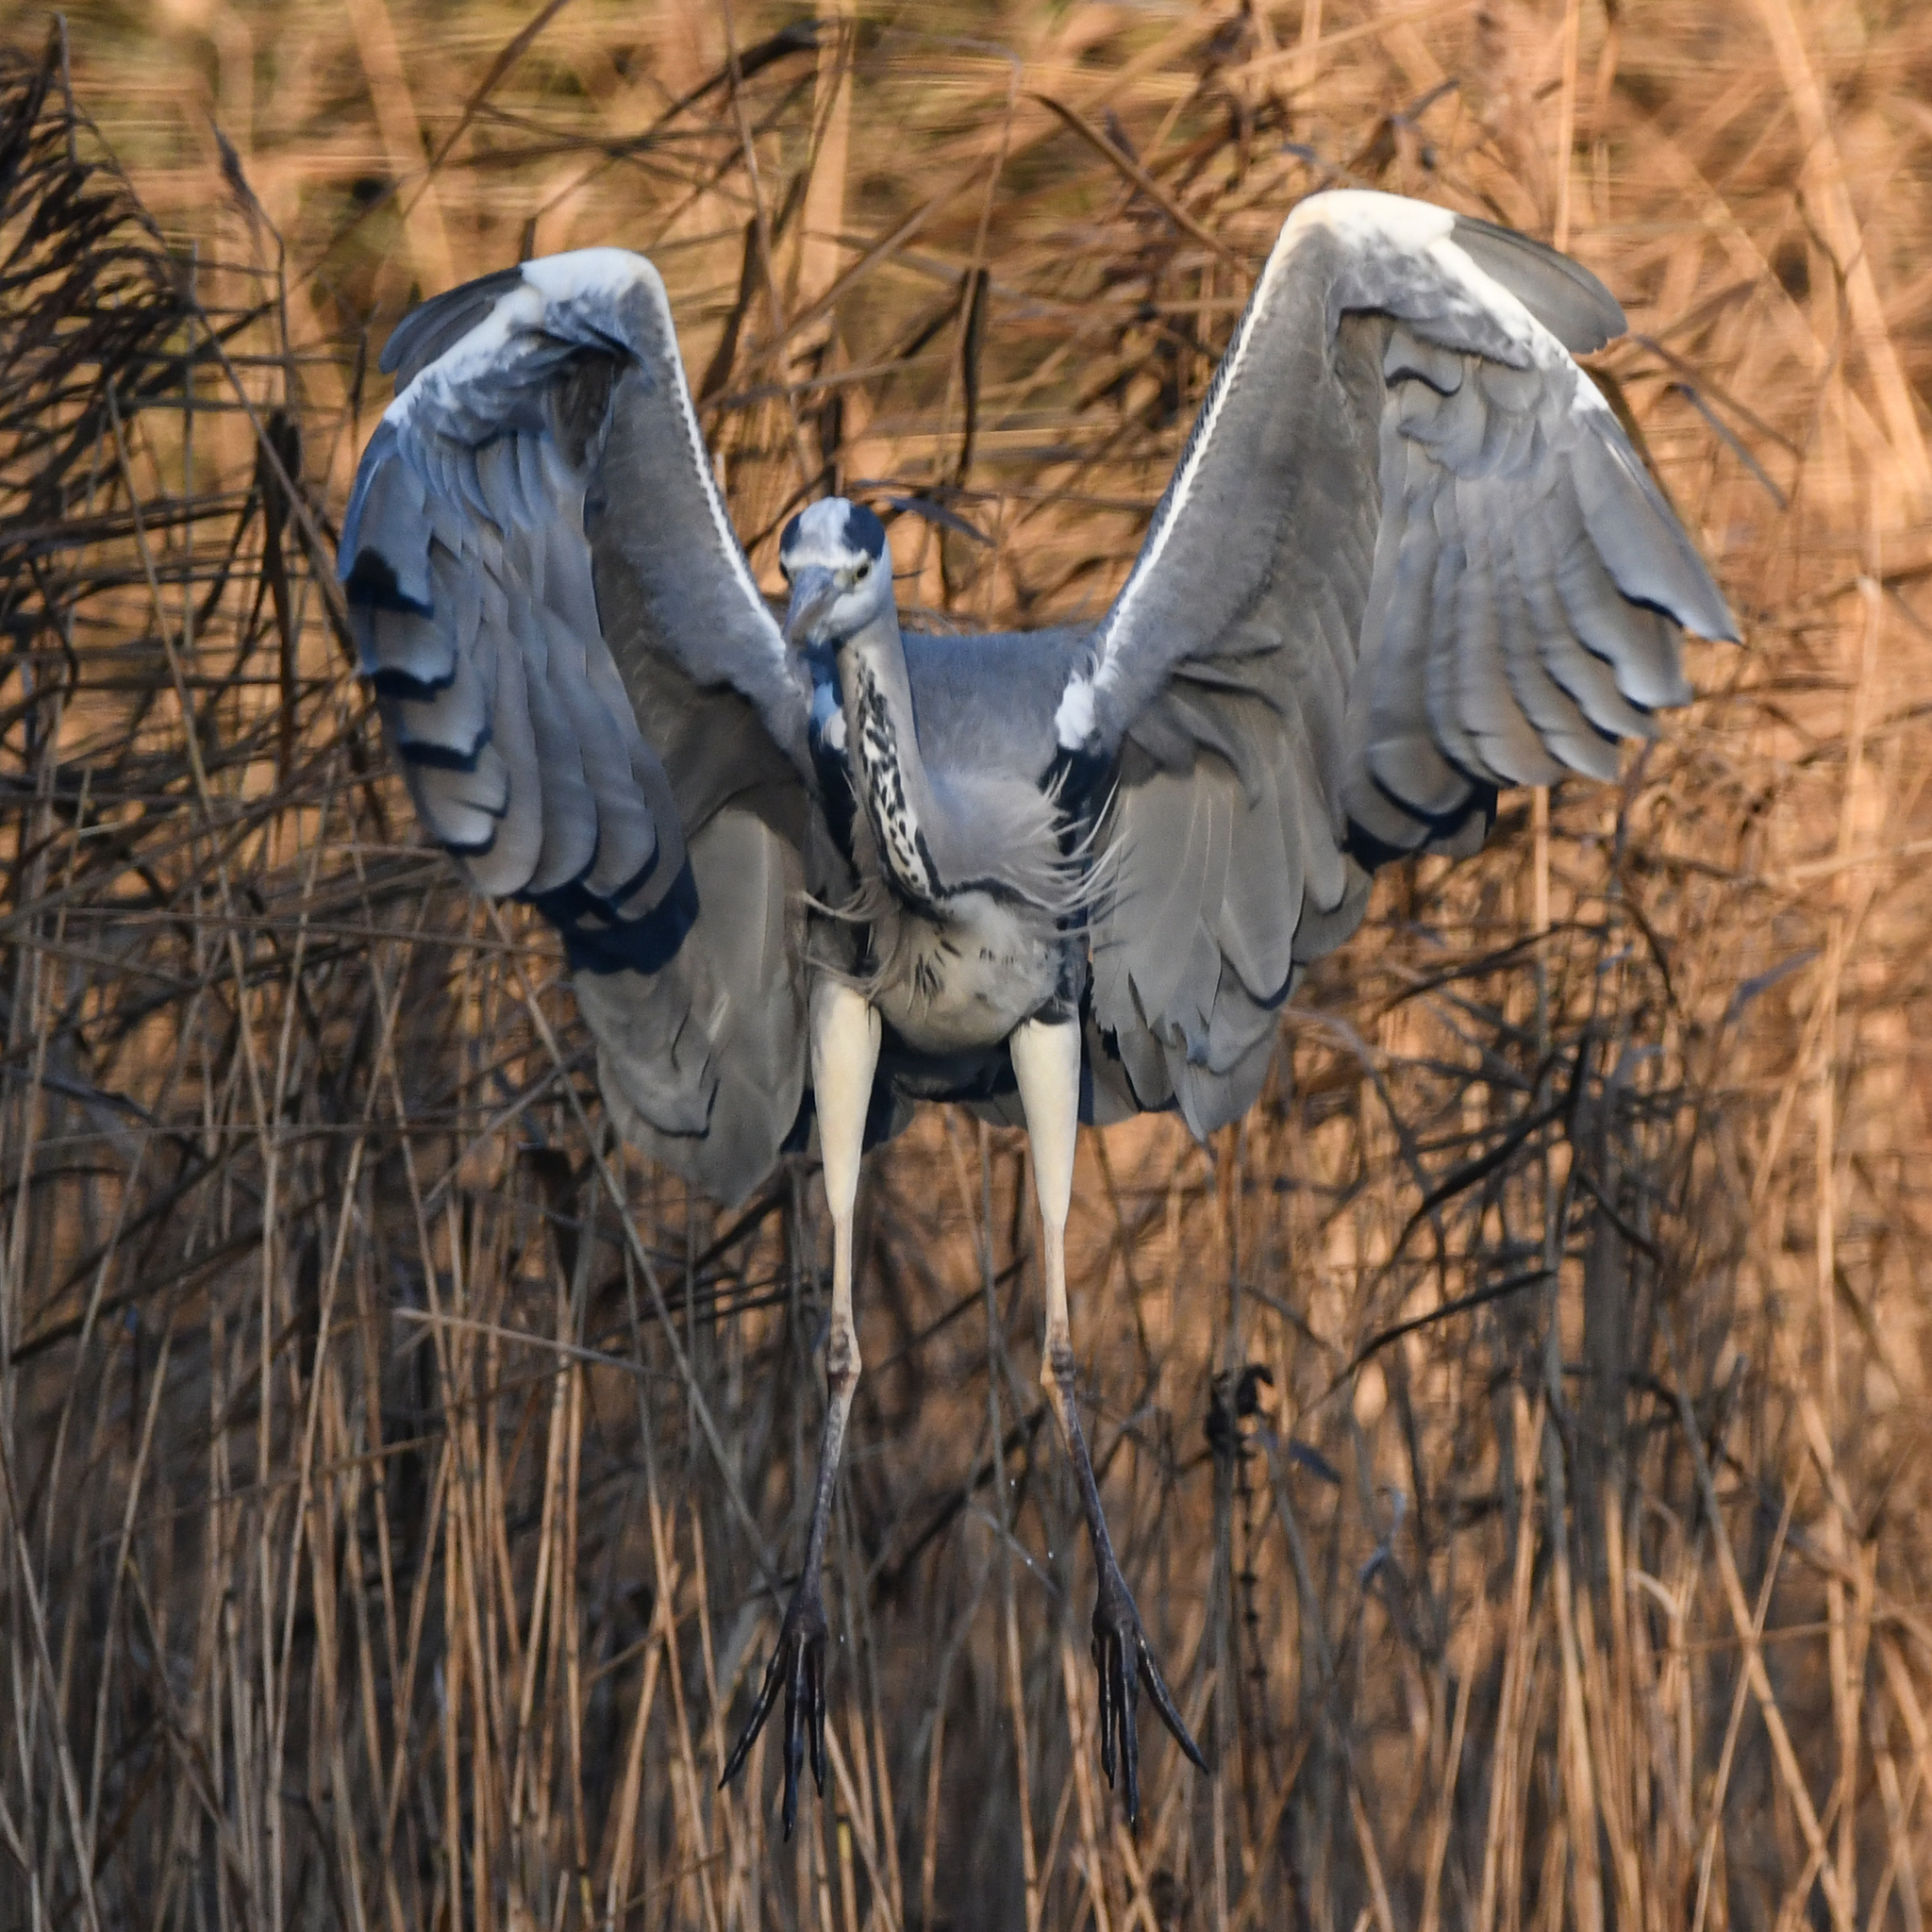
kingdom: Animalia
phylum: Chordata
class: Aves
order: Pelecaniformes
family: Ardeidae
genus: Ardea
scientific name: Ardea cinerea
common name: Grey heron
